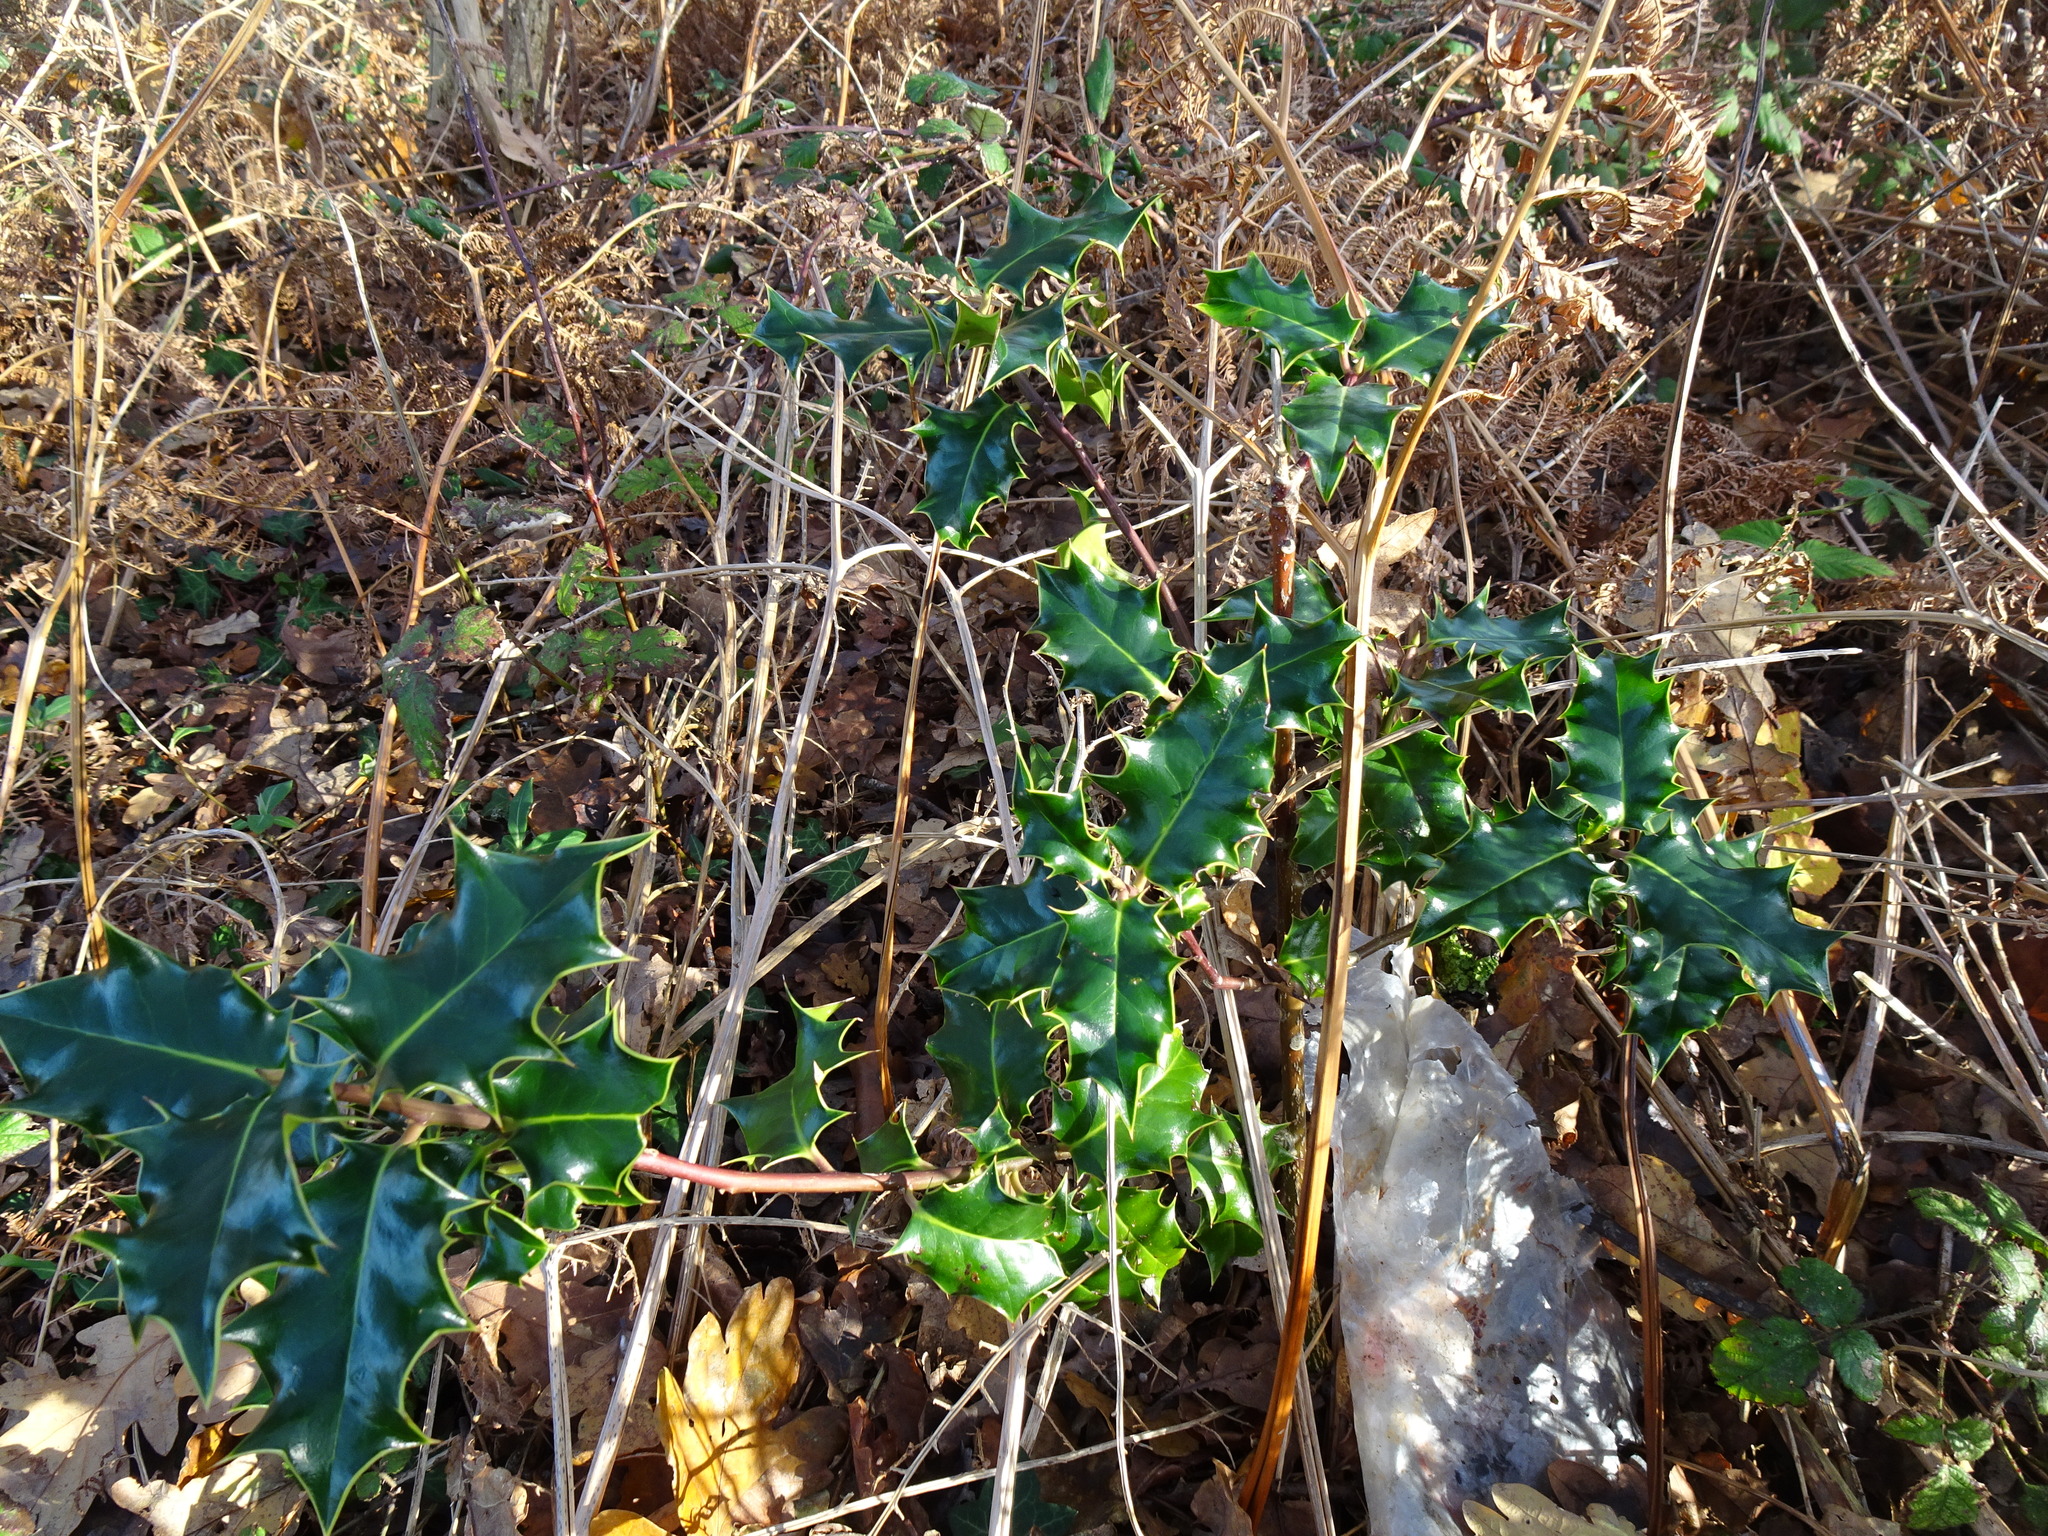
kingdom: Plantae
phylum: Tracheophyta
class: Magnoliopsida
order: Aquifoliales
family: Aquifoliaceae
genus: Ilex
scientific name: Ilex aquifolium
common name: English holly
